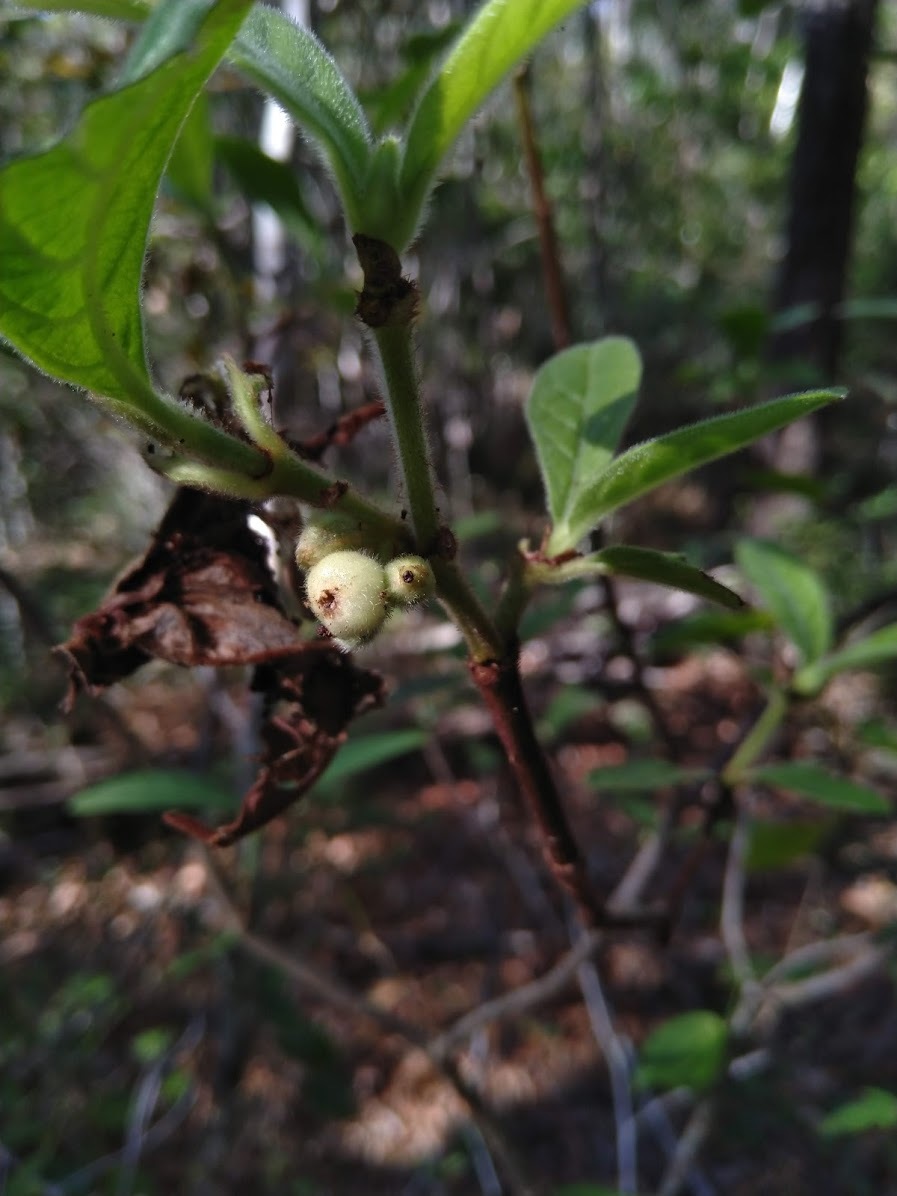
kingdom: Plantae
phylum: Tracheophyta
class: Magnoliopsida
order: Gentianales
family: Rubiaceae
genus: Psychotria
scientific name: Psychotria loniceroides
